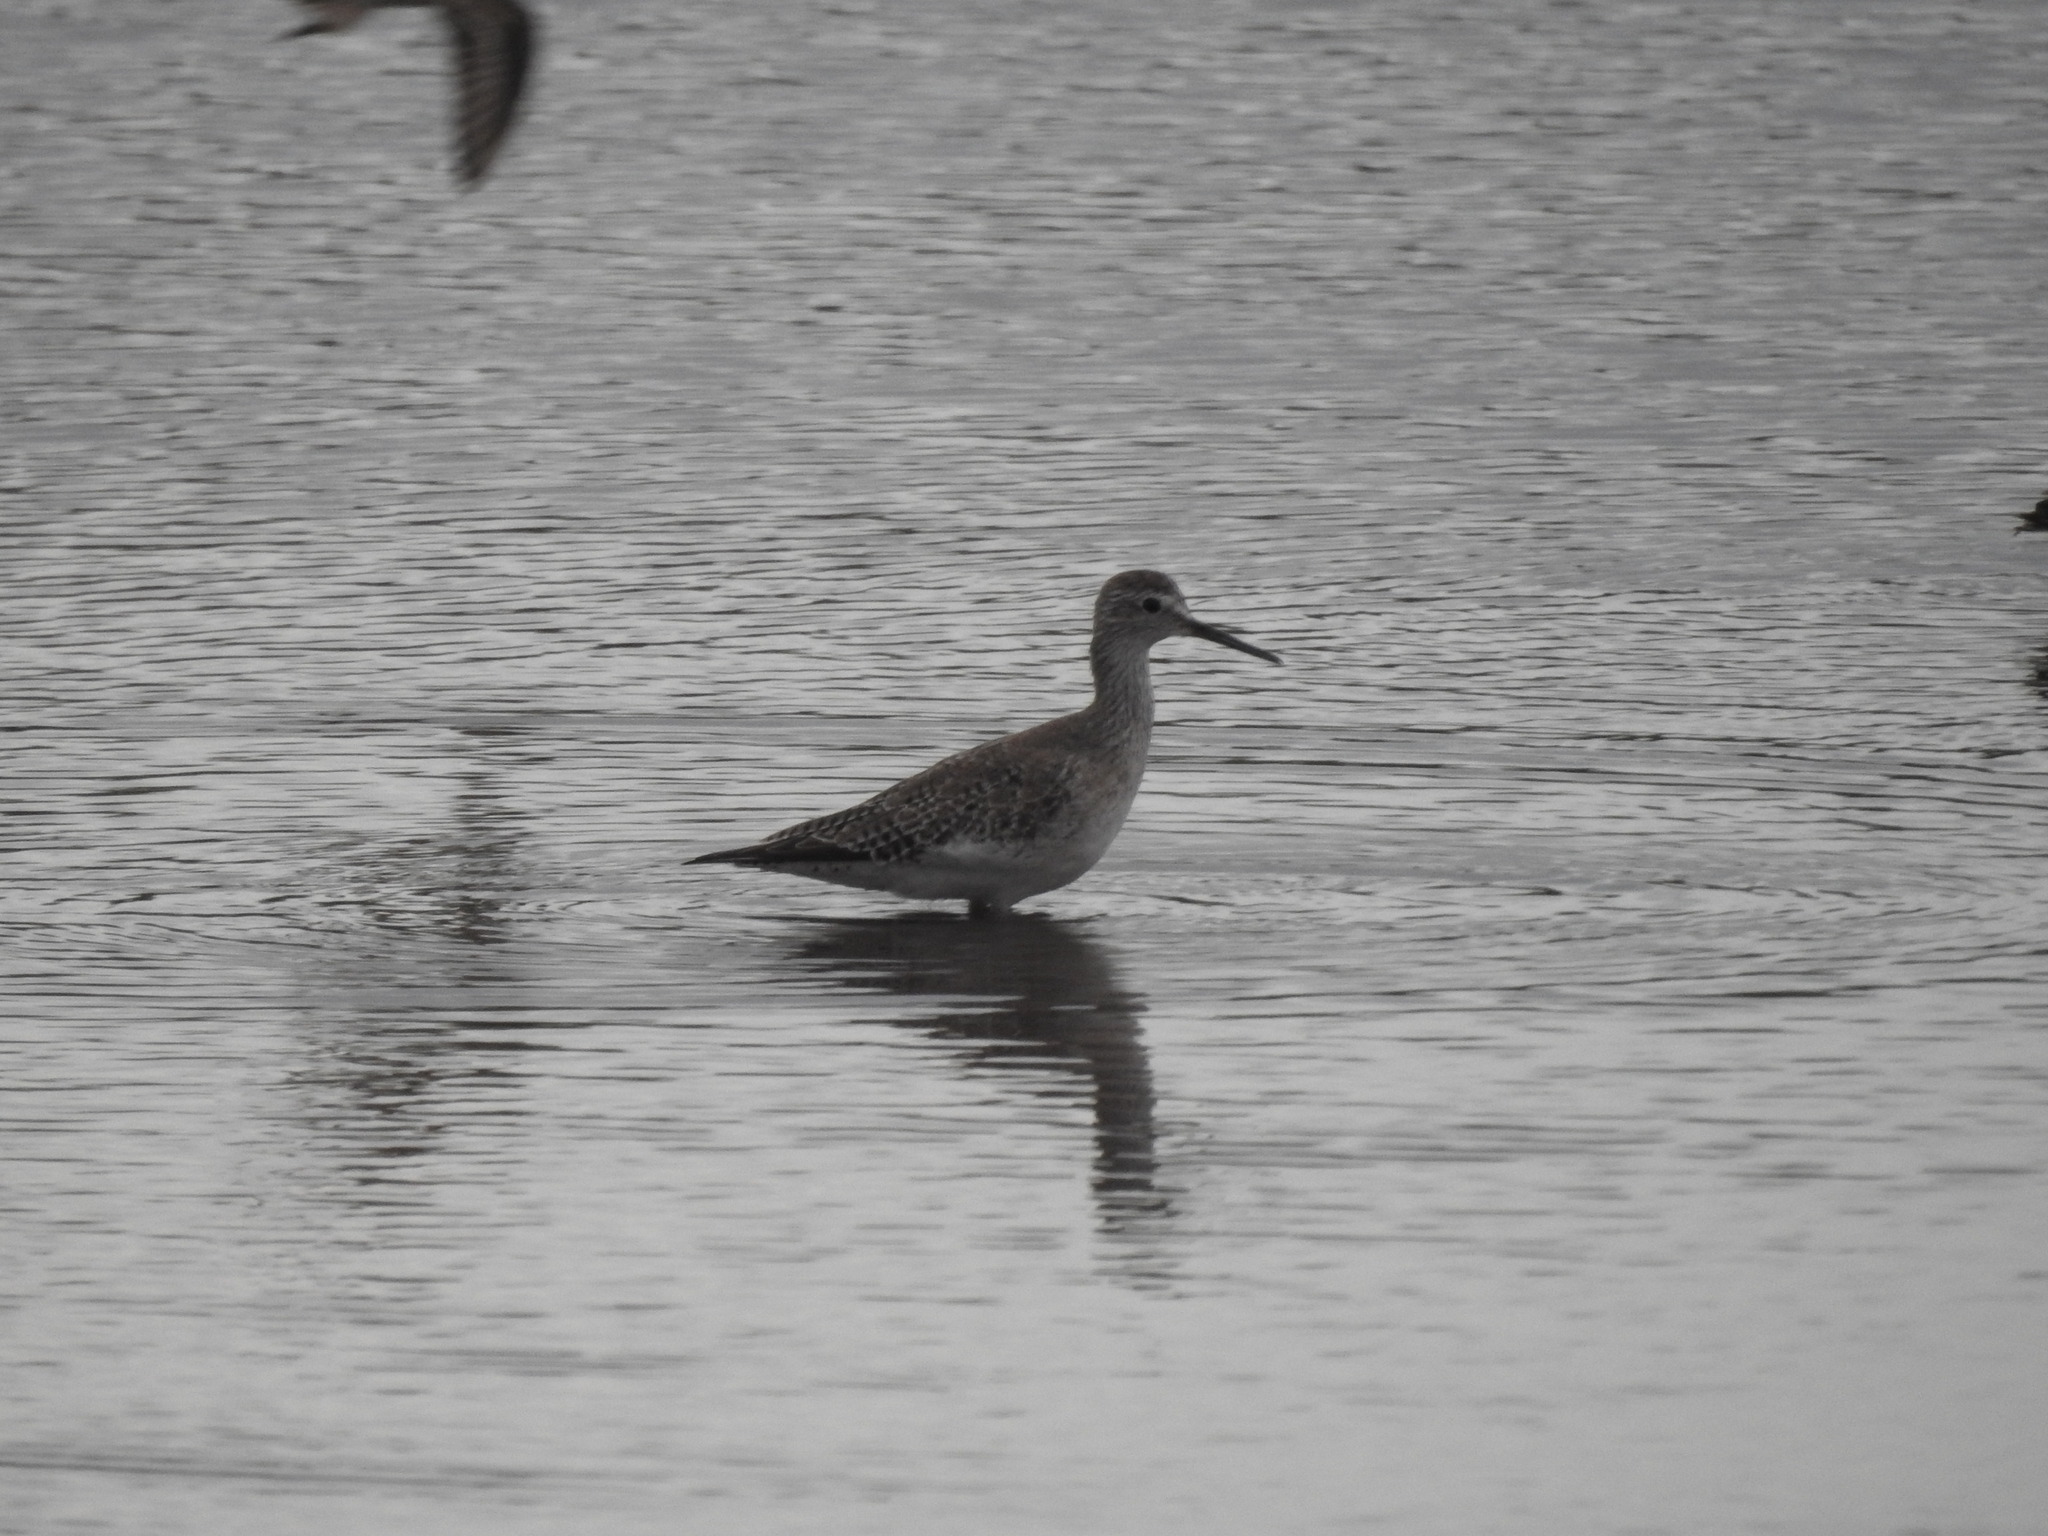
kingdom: Animalia
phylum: Chordata
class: Aves
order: Charadriiformes
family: Scolopacidae
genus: Tringa
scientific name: Tringa flavipes
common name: Lesser yellowlegs
